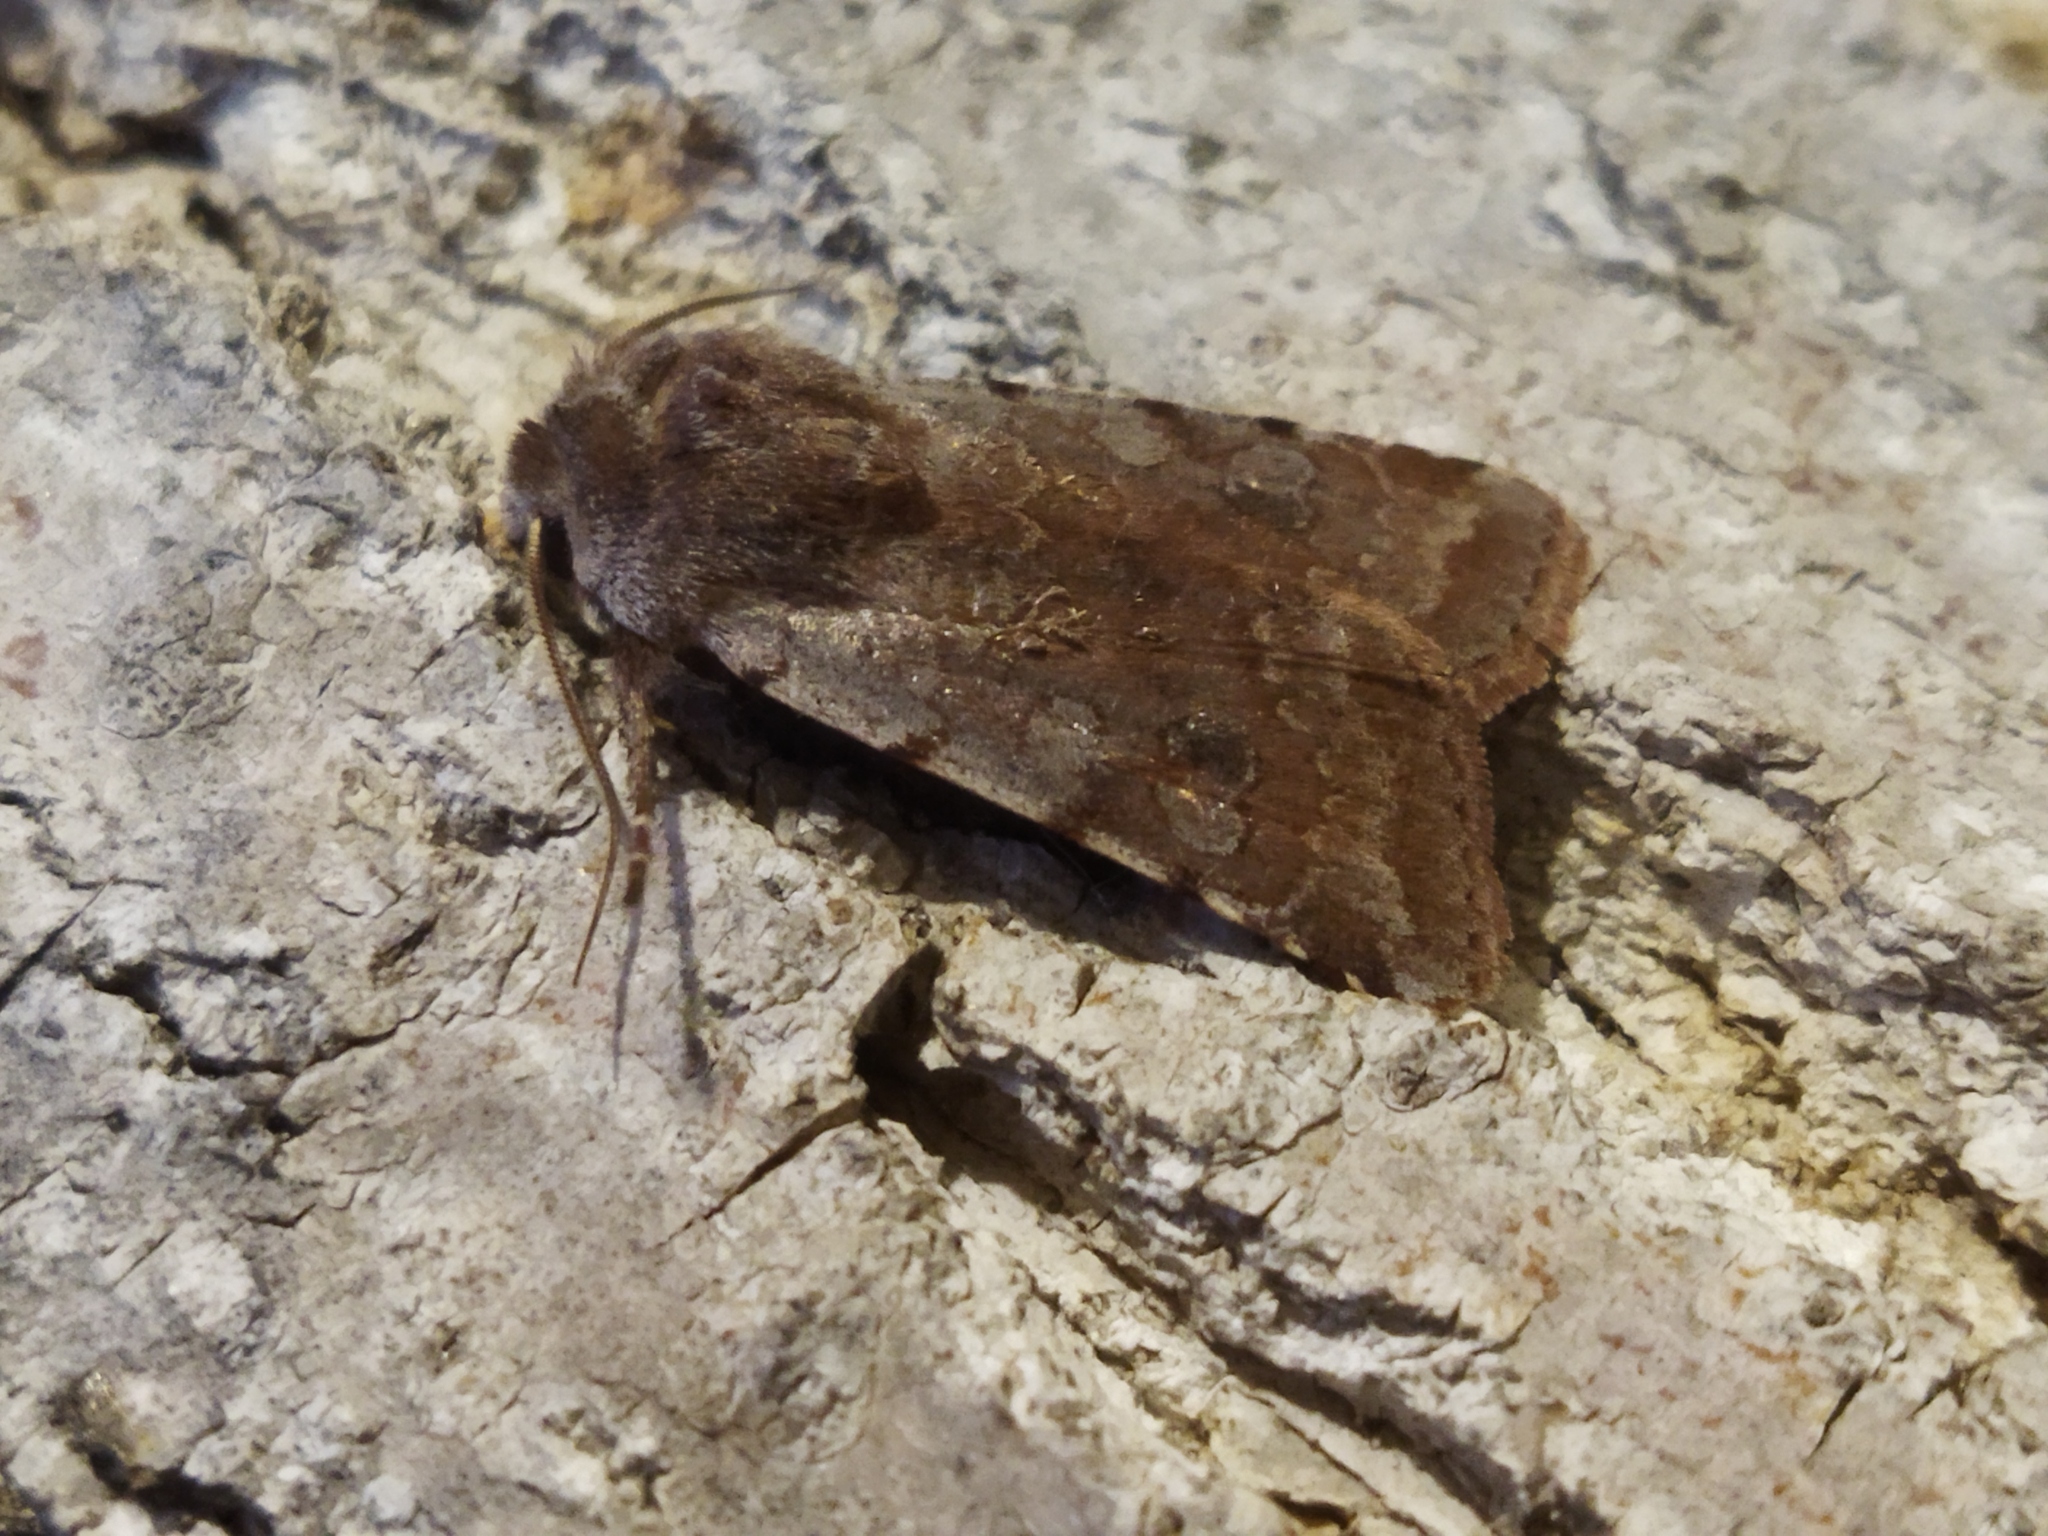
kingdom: Animalia
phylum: Arthropoda
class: Insecta
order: Lepidoptera
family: Noctuidae
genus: Cerastis
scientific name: Cerastis rubricosa
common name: Red chestnut
